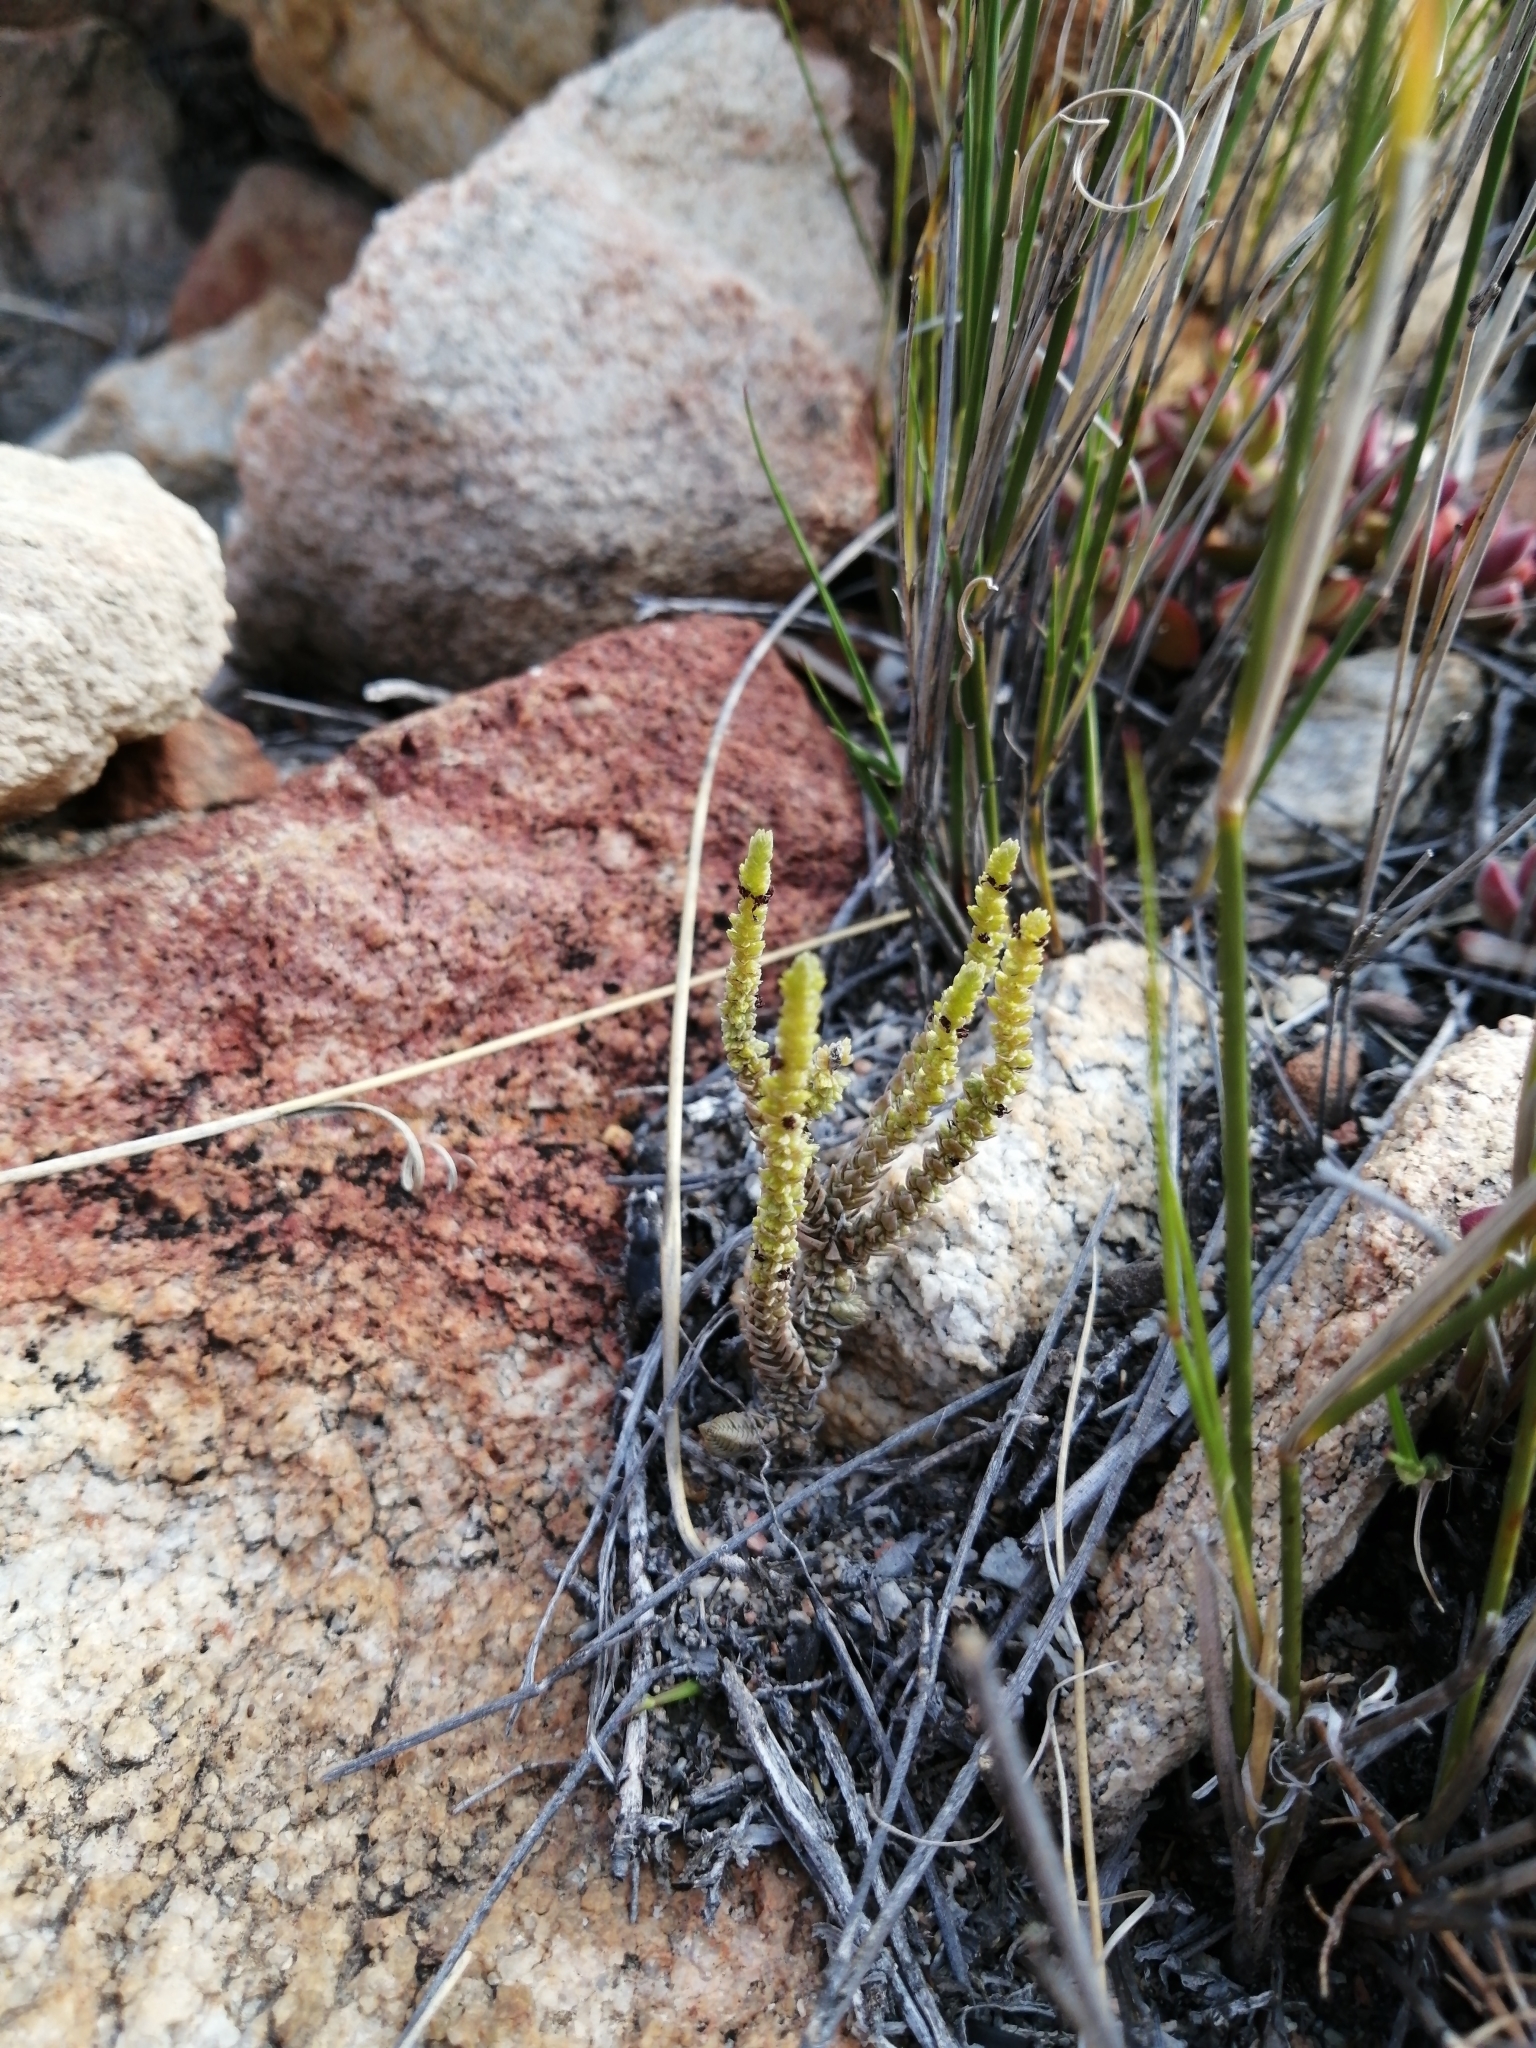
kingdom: Plantae
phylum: Tracheophyta
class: Magnoliopsida
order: Saxifragales
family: Crassulaceae
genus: Crassula
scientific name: Crassula muscosa
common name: Toy-cypress
